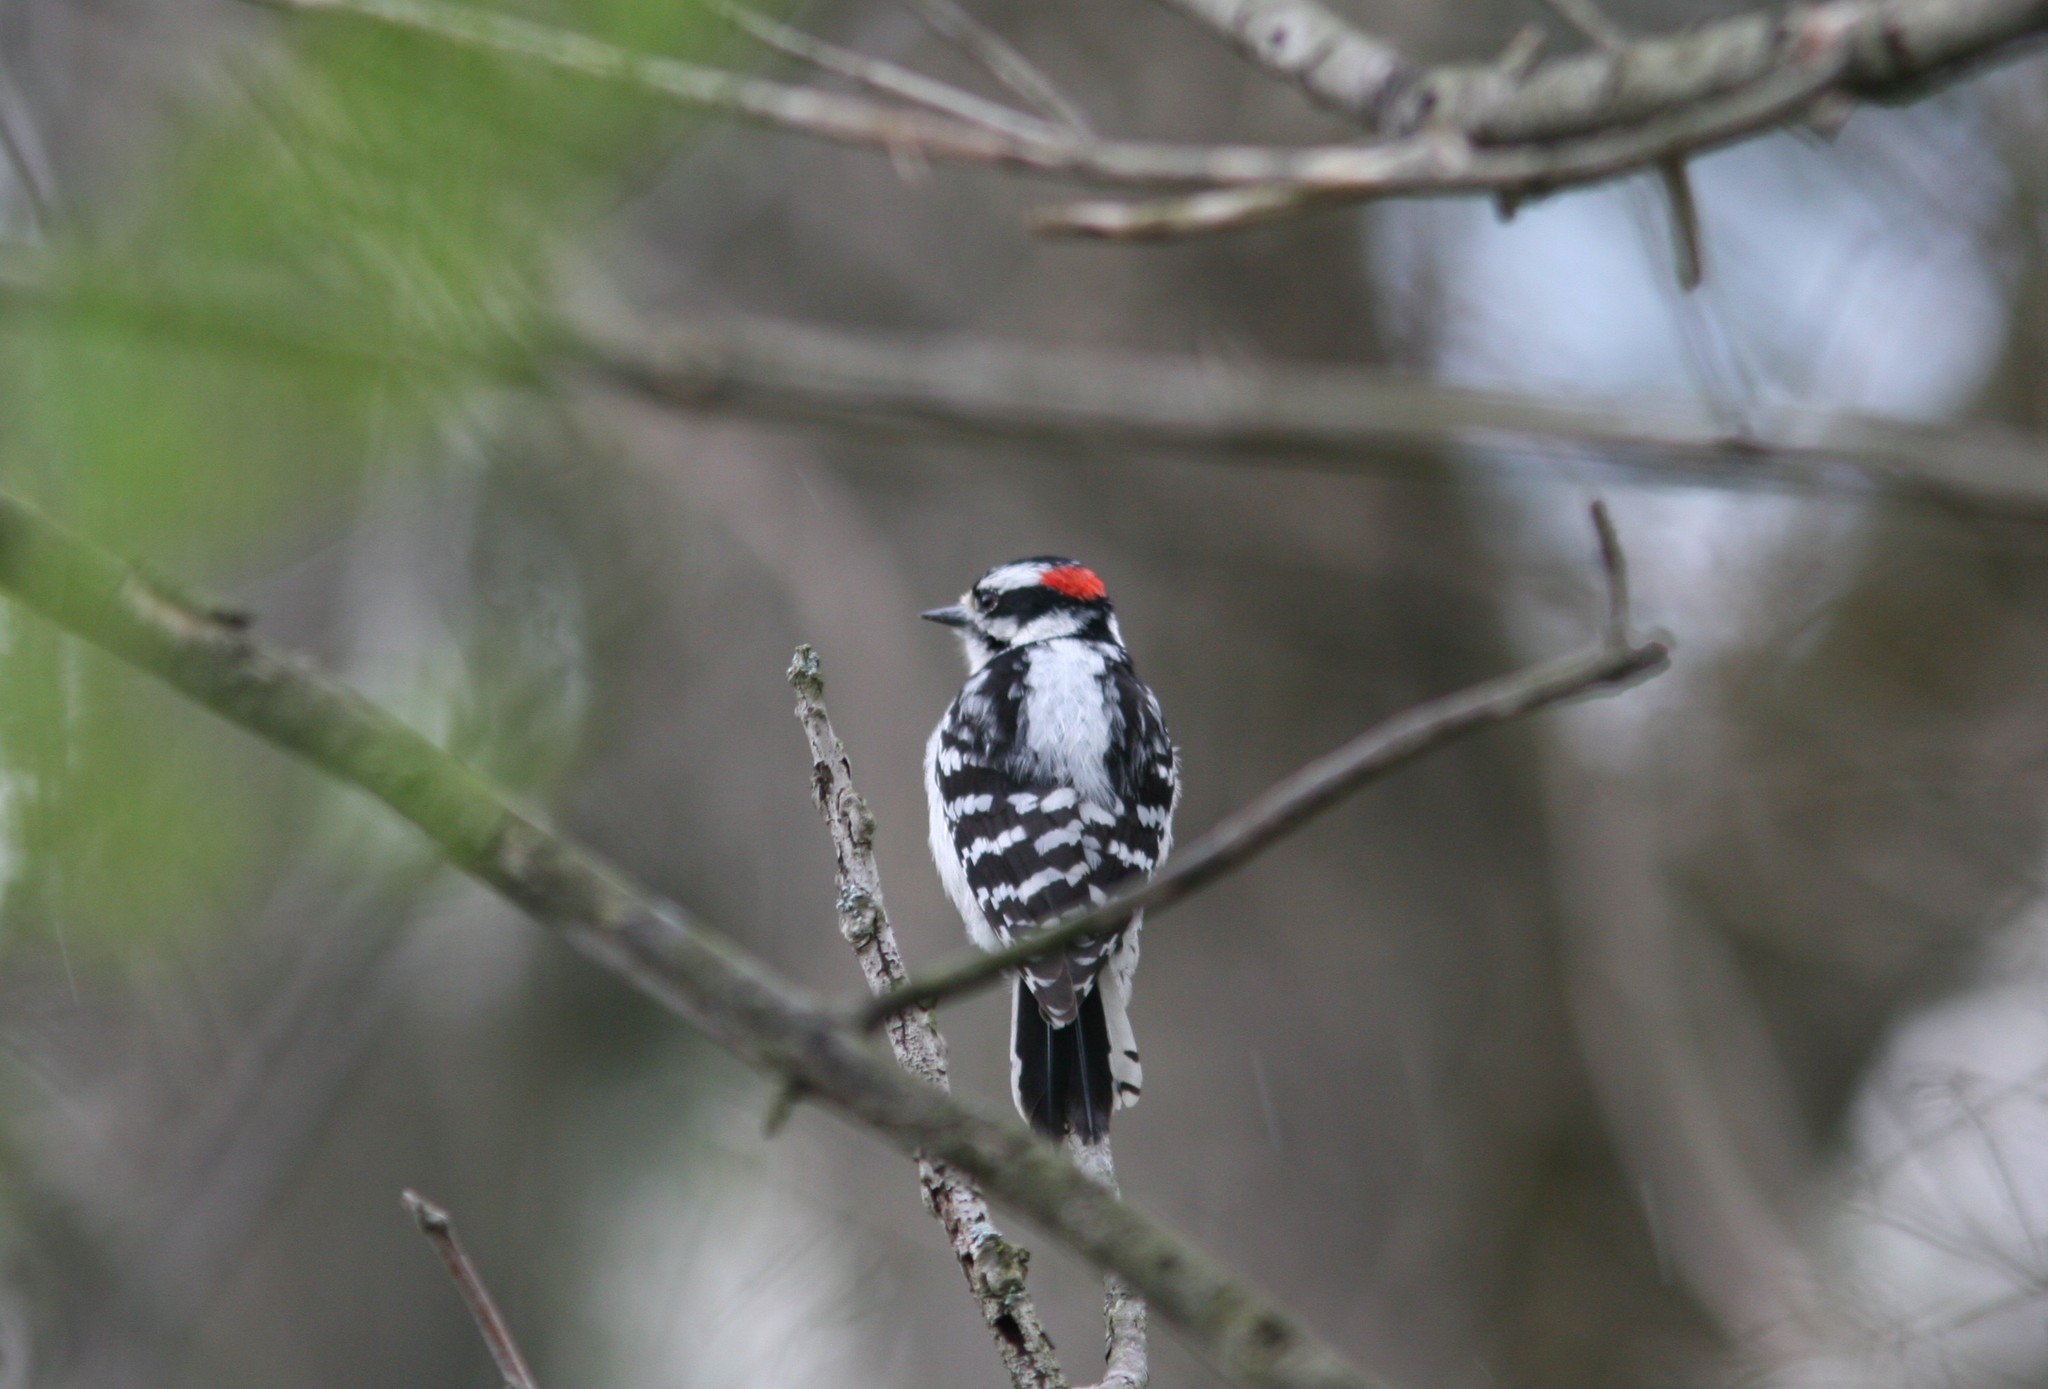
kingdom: Animalia
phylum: Chordata
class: Aves
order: Piciformes
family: Picidae
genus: Dryobates
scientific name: Dryobates pubescens
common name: Downy woodpecker
